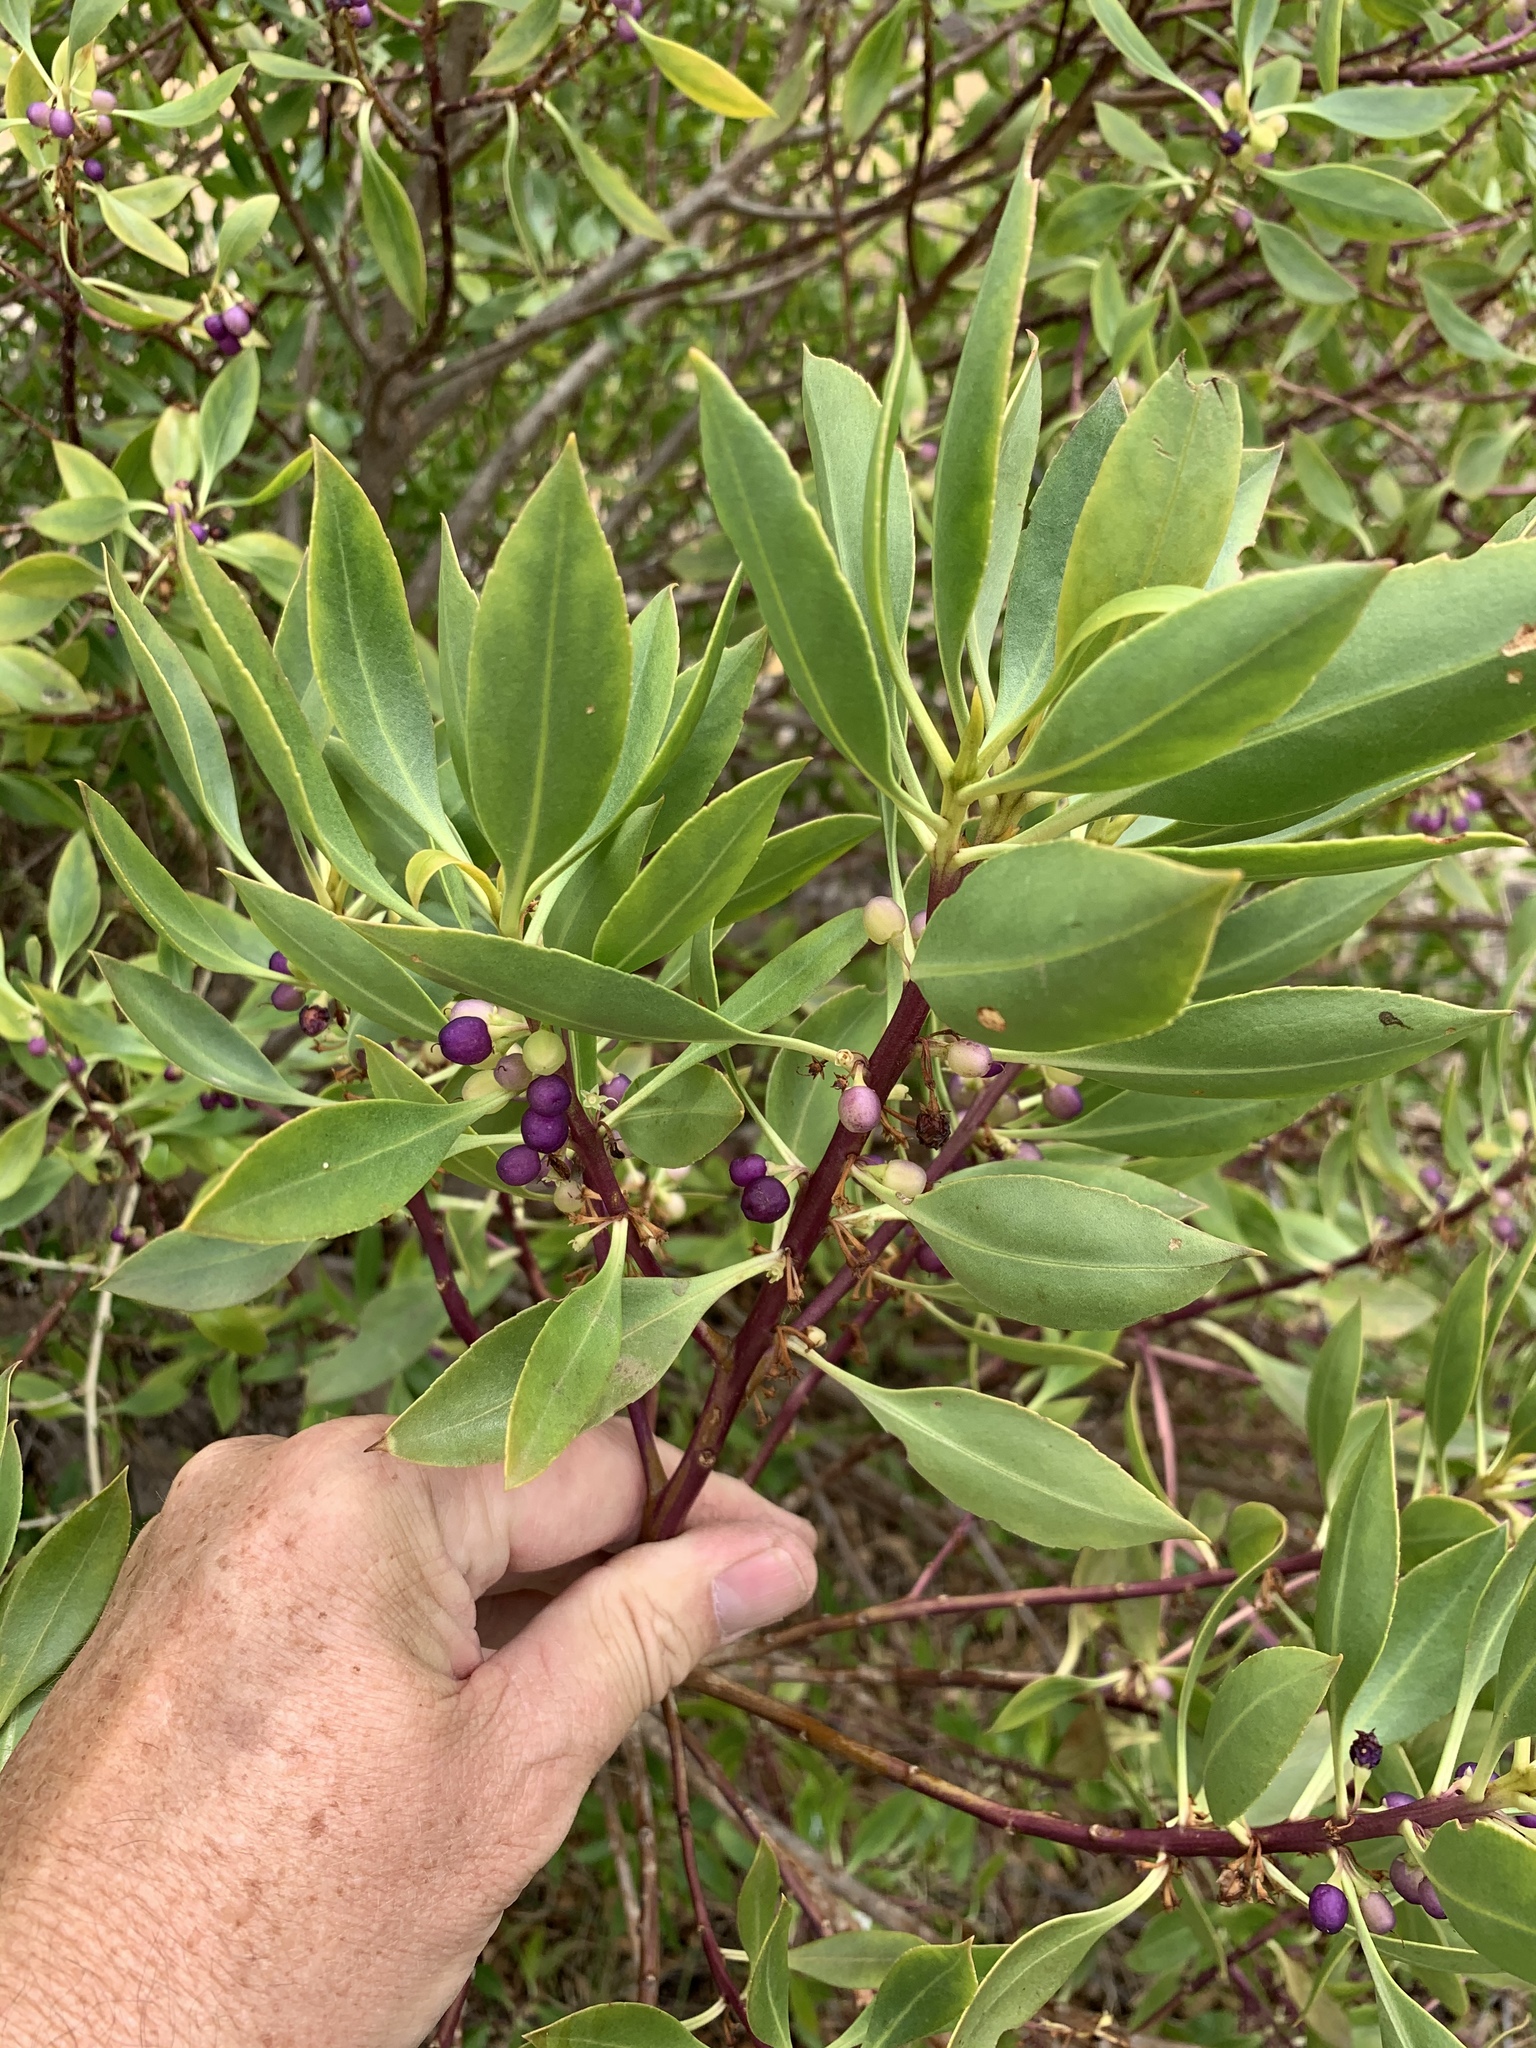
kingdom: Plantae
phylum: Tracheophyta
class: Magnoliopsida
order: Lamiales
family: Scrophulariaceae
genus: Myoporum
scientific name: Myoporum insulare
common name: Common boobialla
